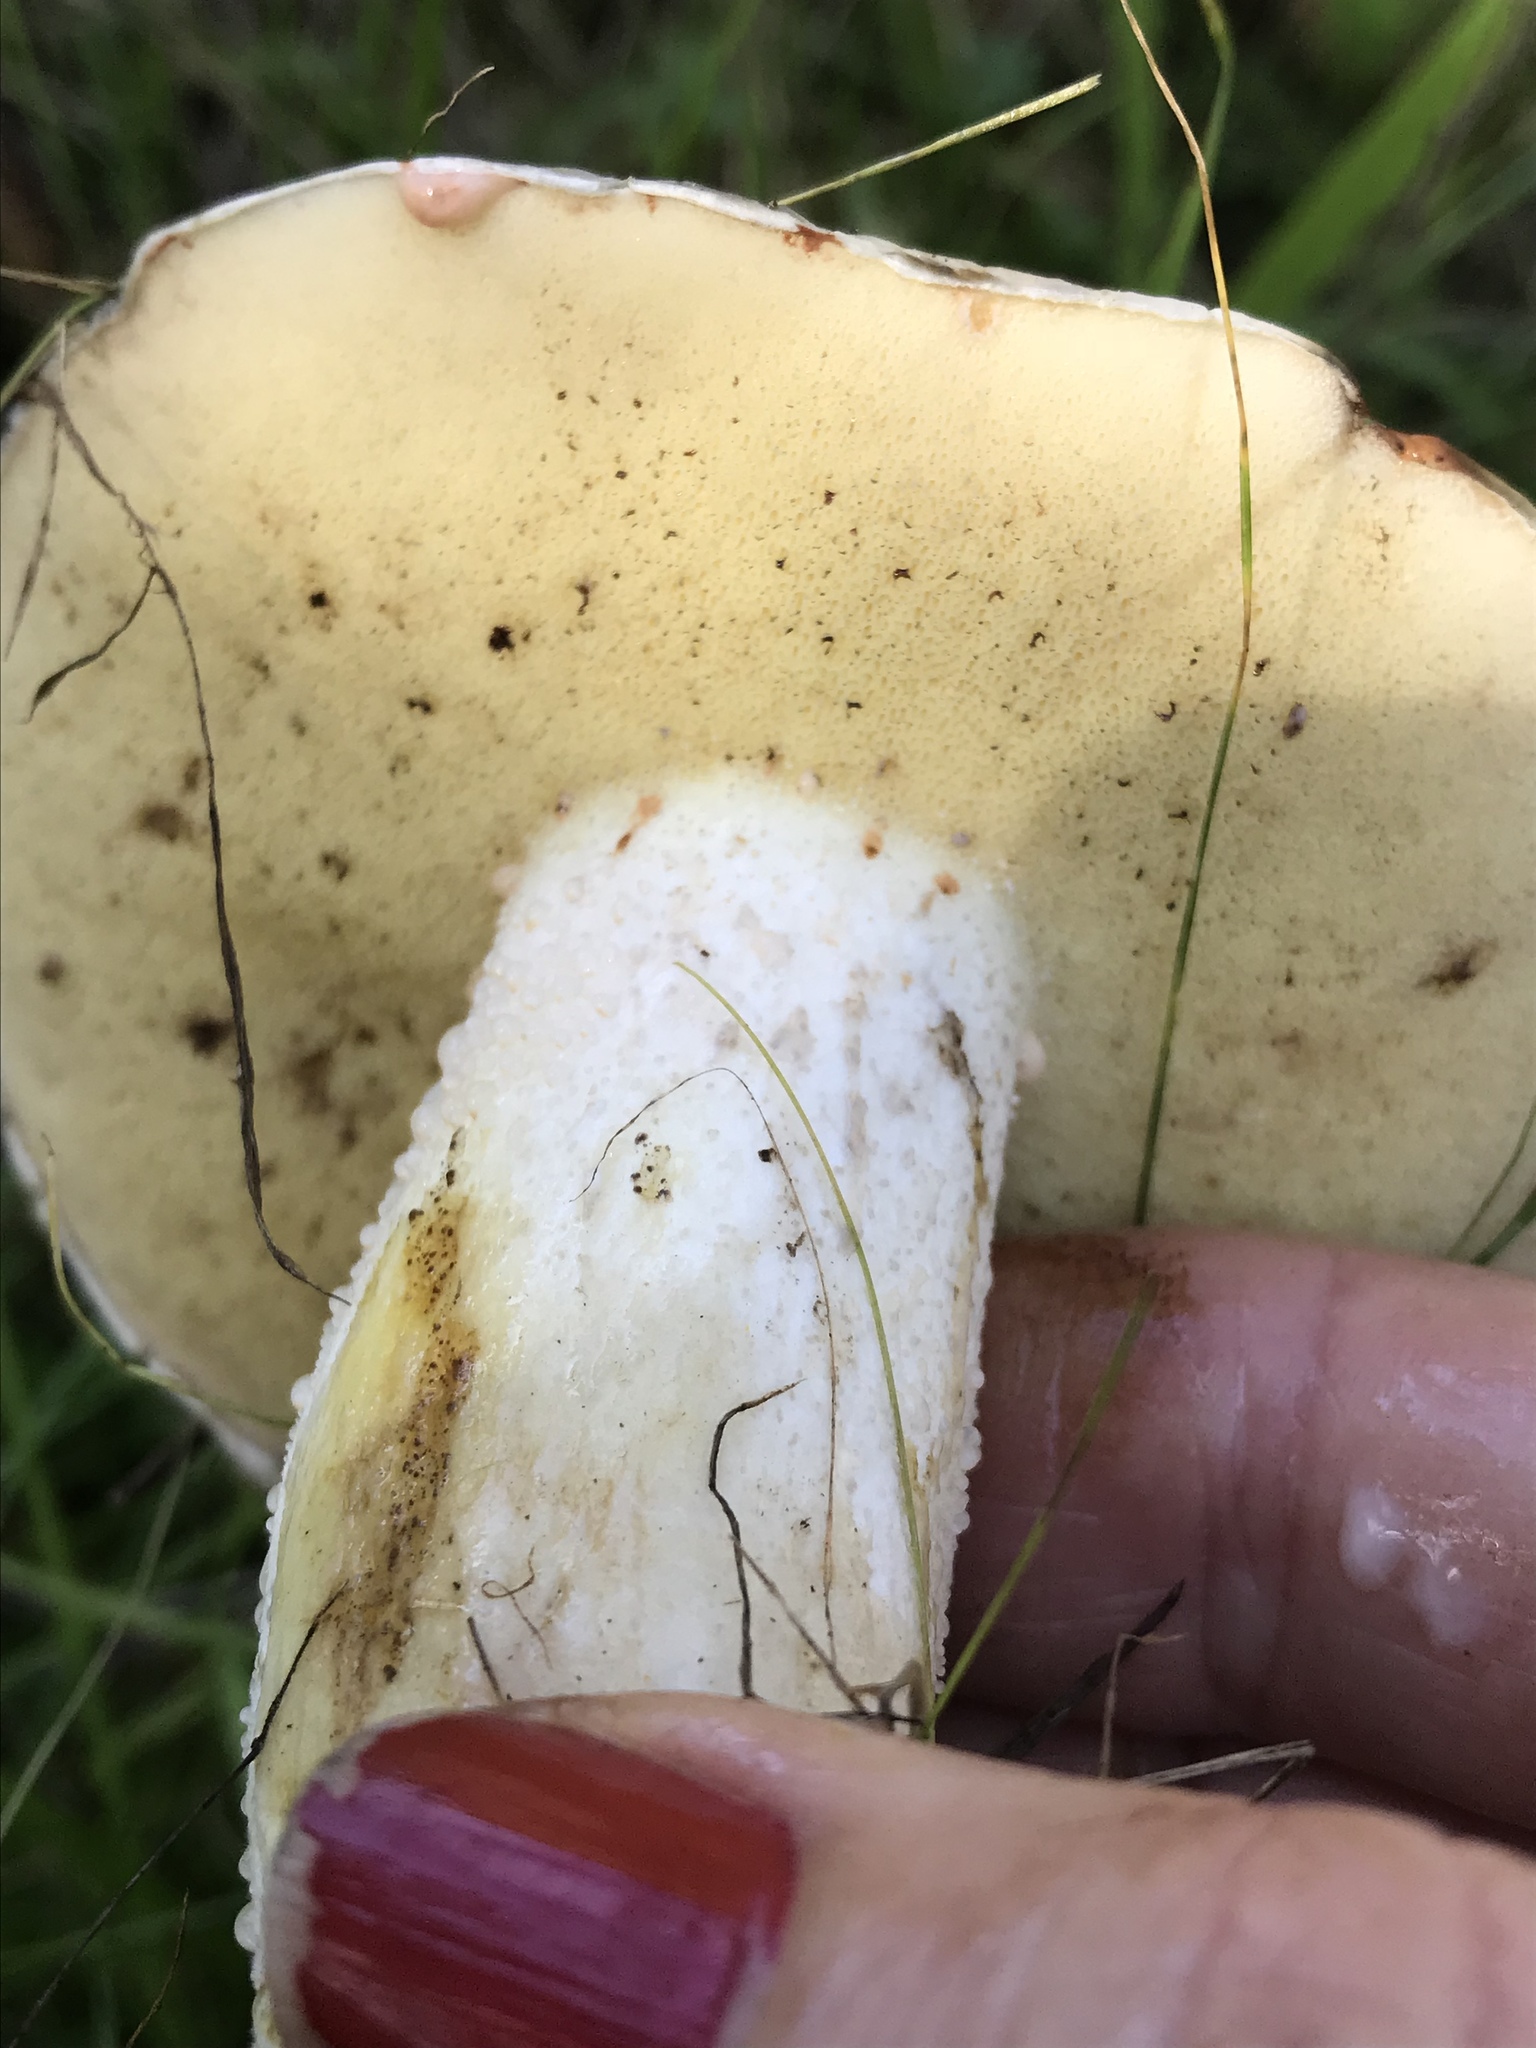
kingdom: Fungi
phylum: Basidiomycota
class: Agaricomycetes
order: Boletales
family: Suillaceae
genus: Suillus
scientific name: Suillus pungens
